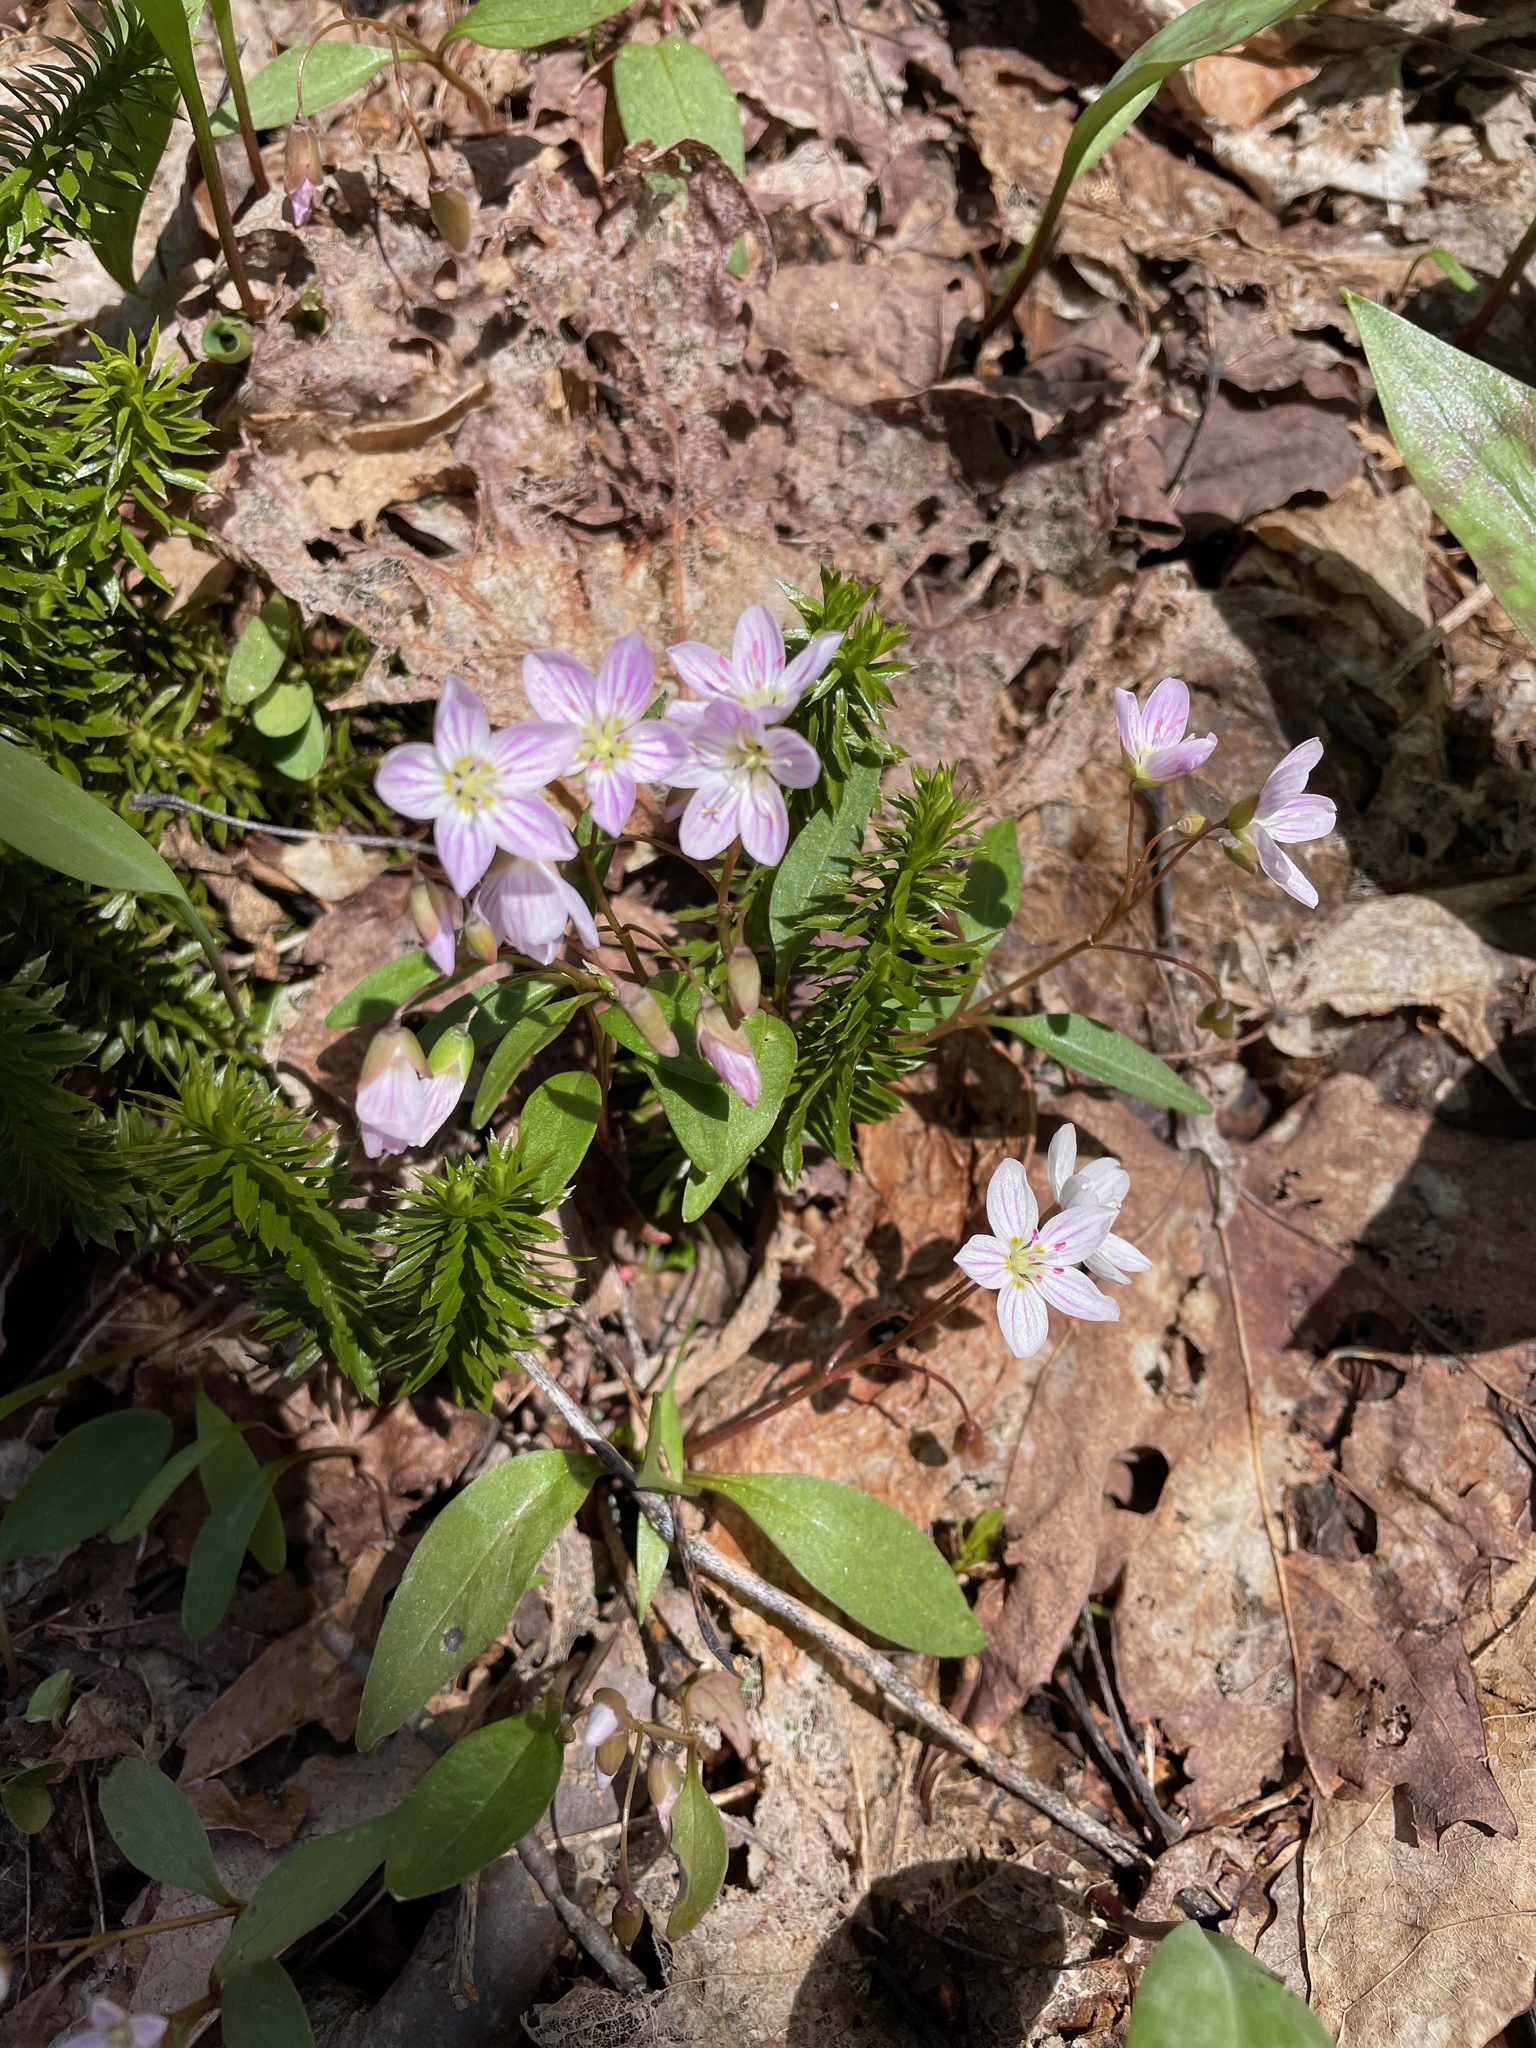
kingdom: Plantae
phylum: Tracheophyta
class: Magnoliopsida
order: Caryophyllales
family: Montiaceae
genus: Claytonia
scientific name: Claytonia caroliniana
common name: Carolina spring beauty
